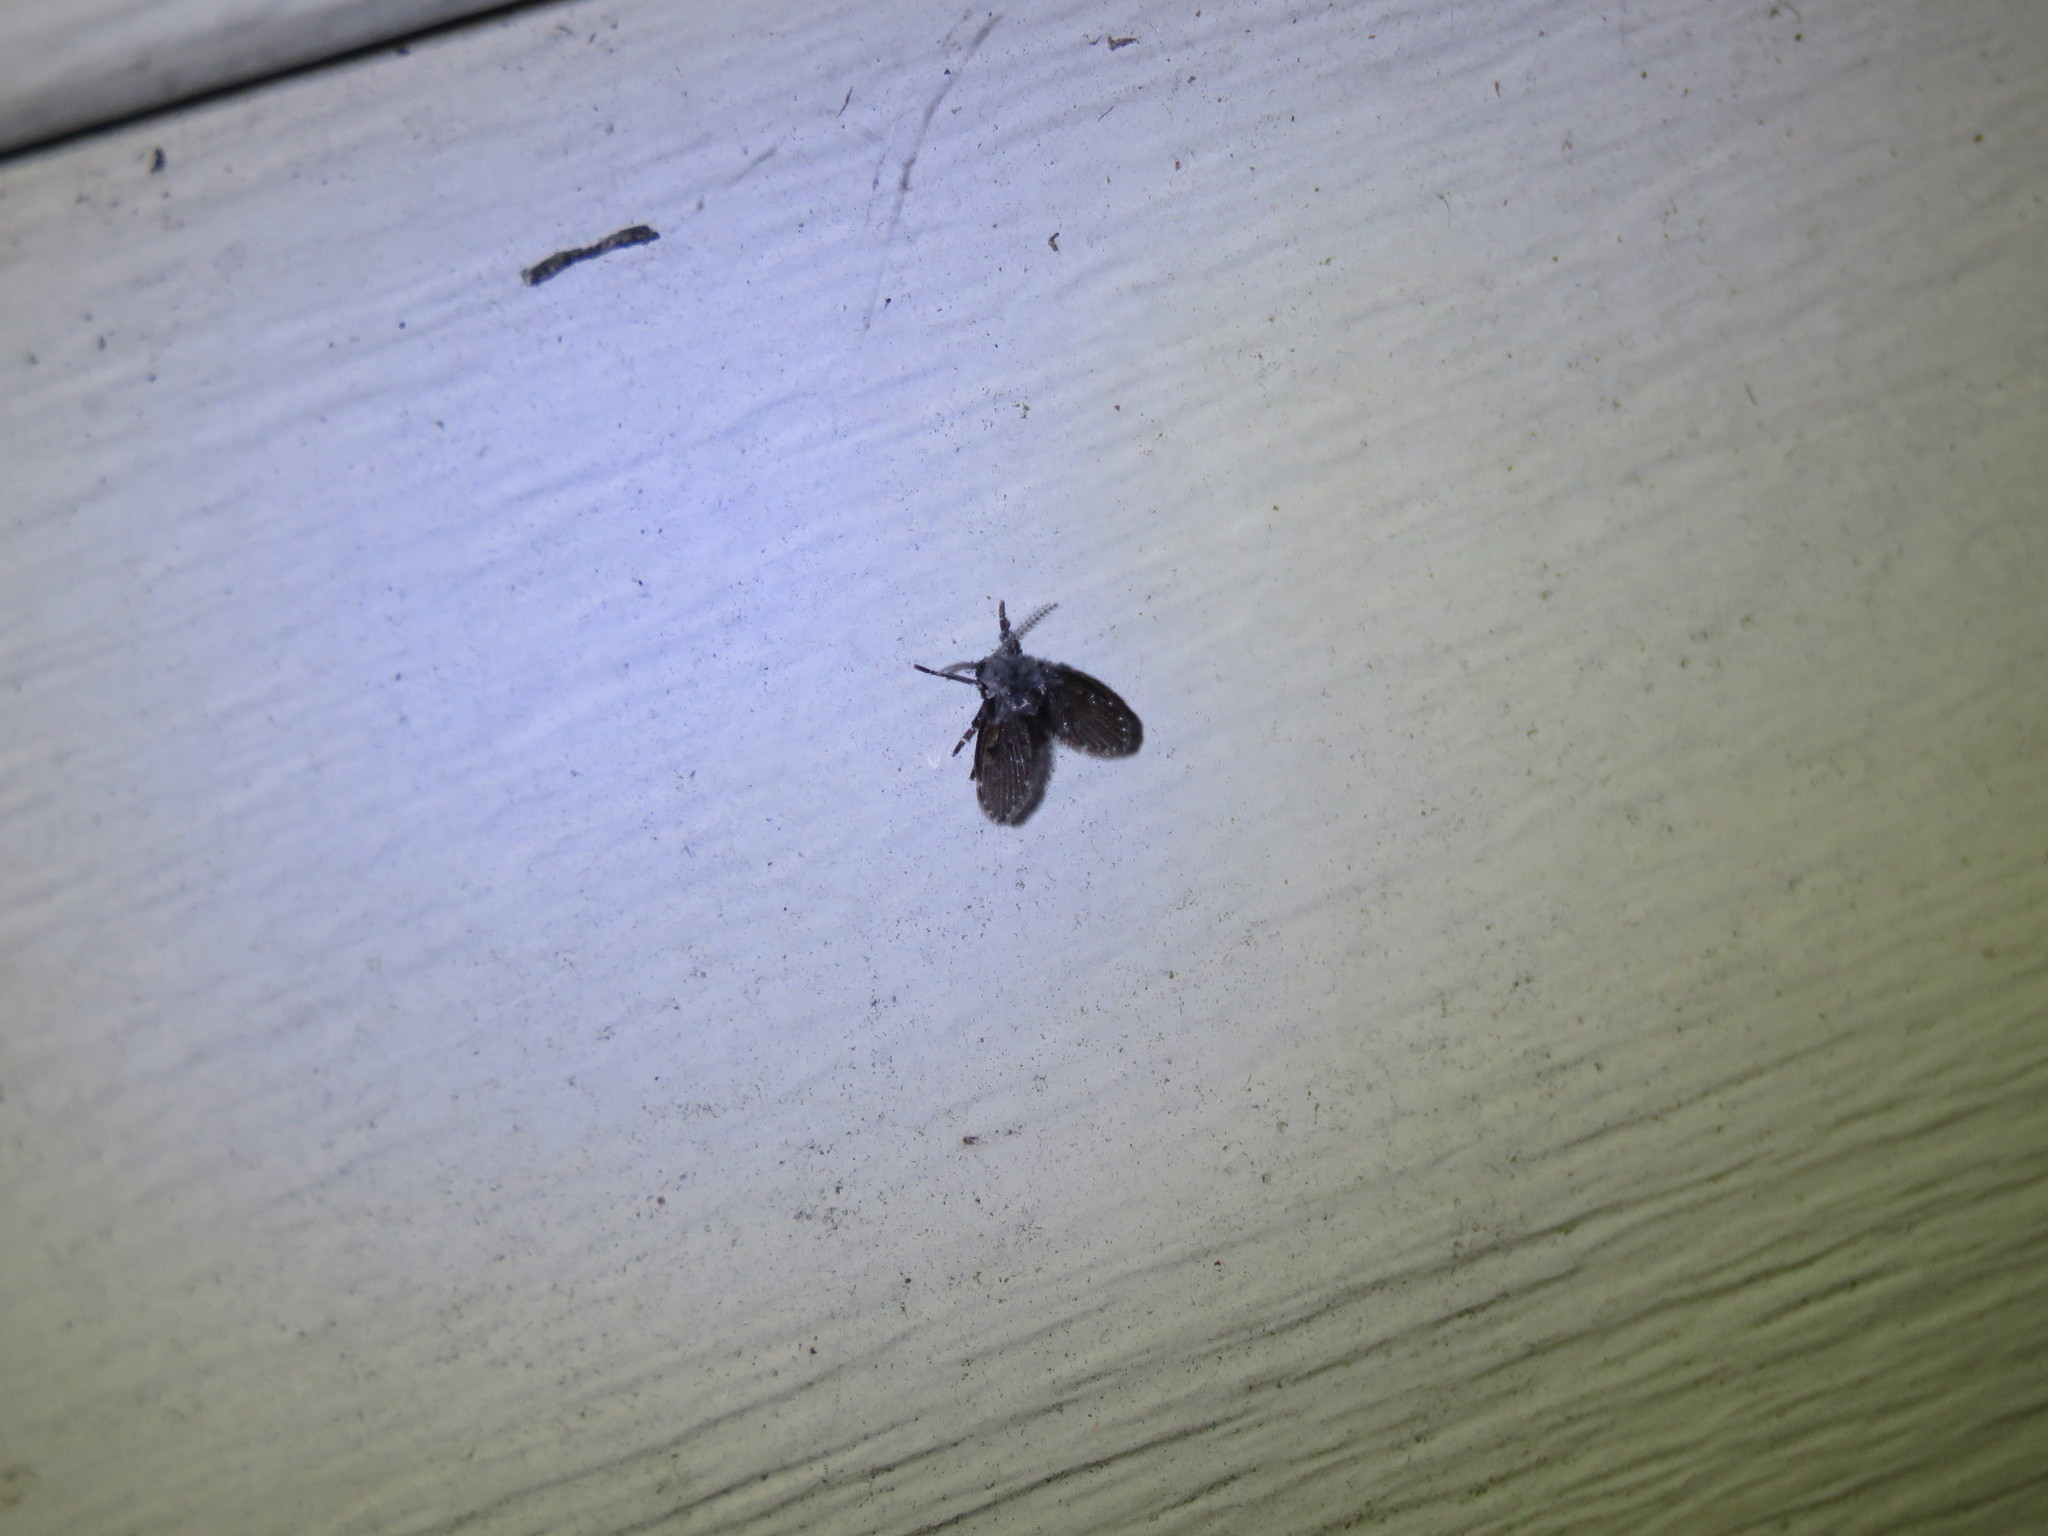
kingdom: Animalia
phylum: Arthropoda
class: Insecta
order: Diptera
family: Psychodidae
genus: Clogmia
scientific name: Clogmia albipunctatus
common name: White-spotted moth fly
